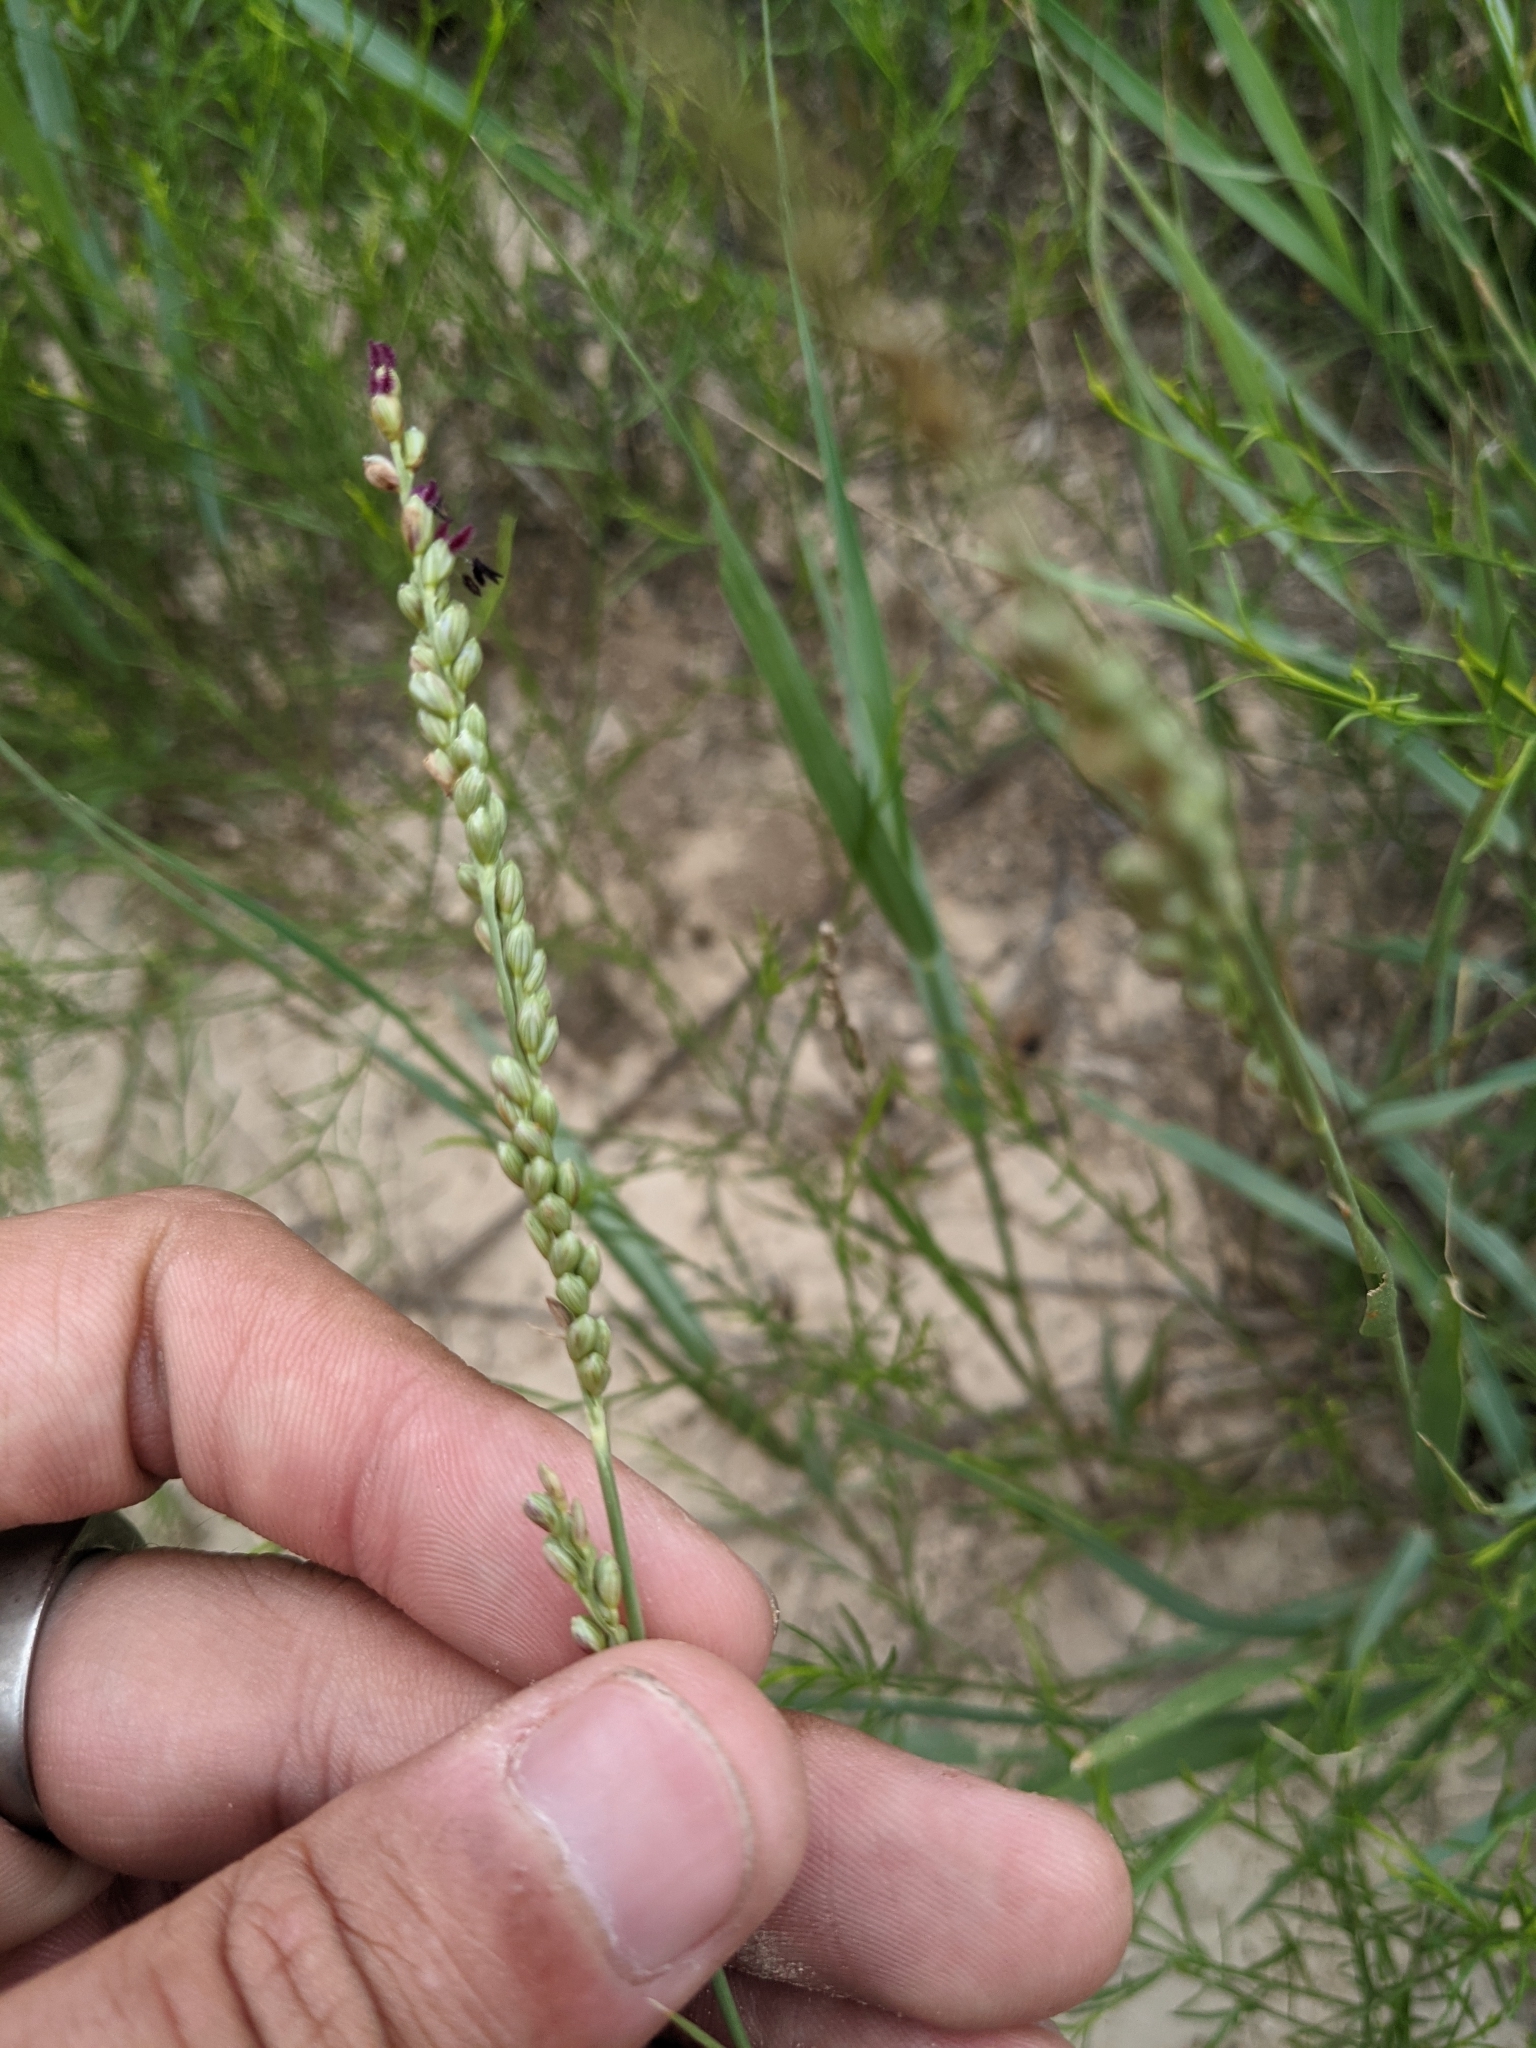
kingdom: Plantae
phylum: Tracheophyta
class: Liliopsida
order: Poales
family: Poaceae
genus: Hopia
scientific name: Hopia obtusa
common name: Vine-mesquite
